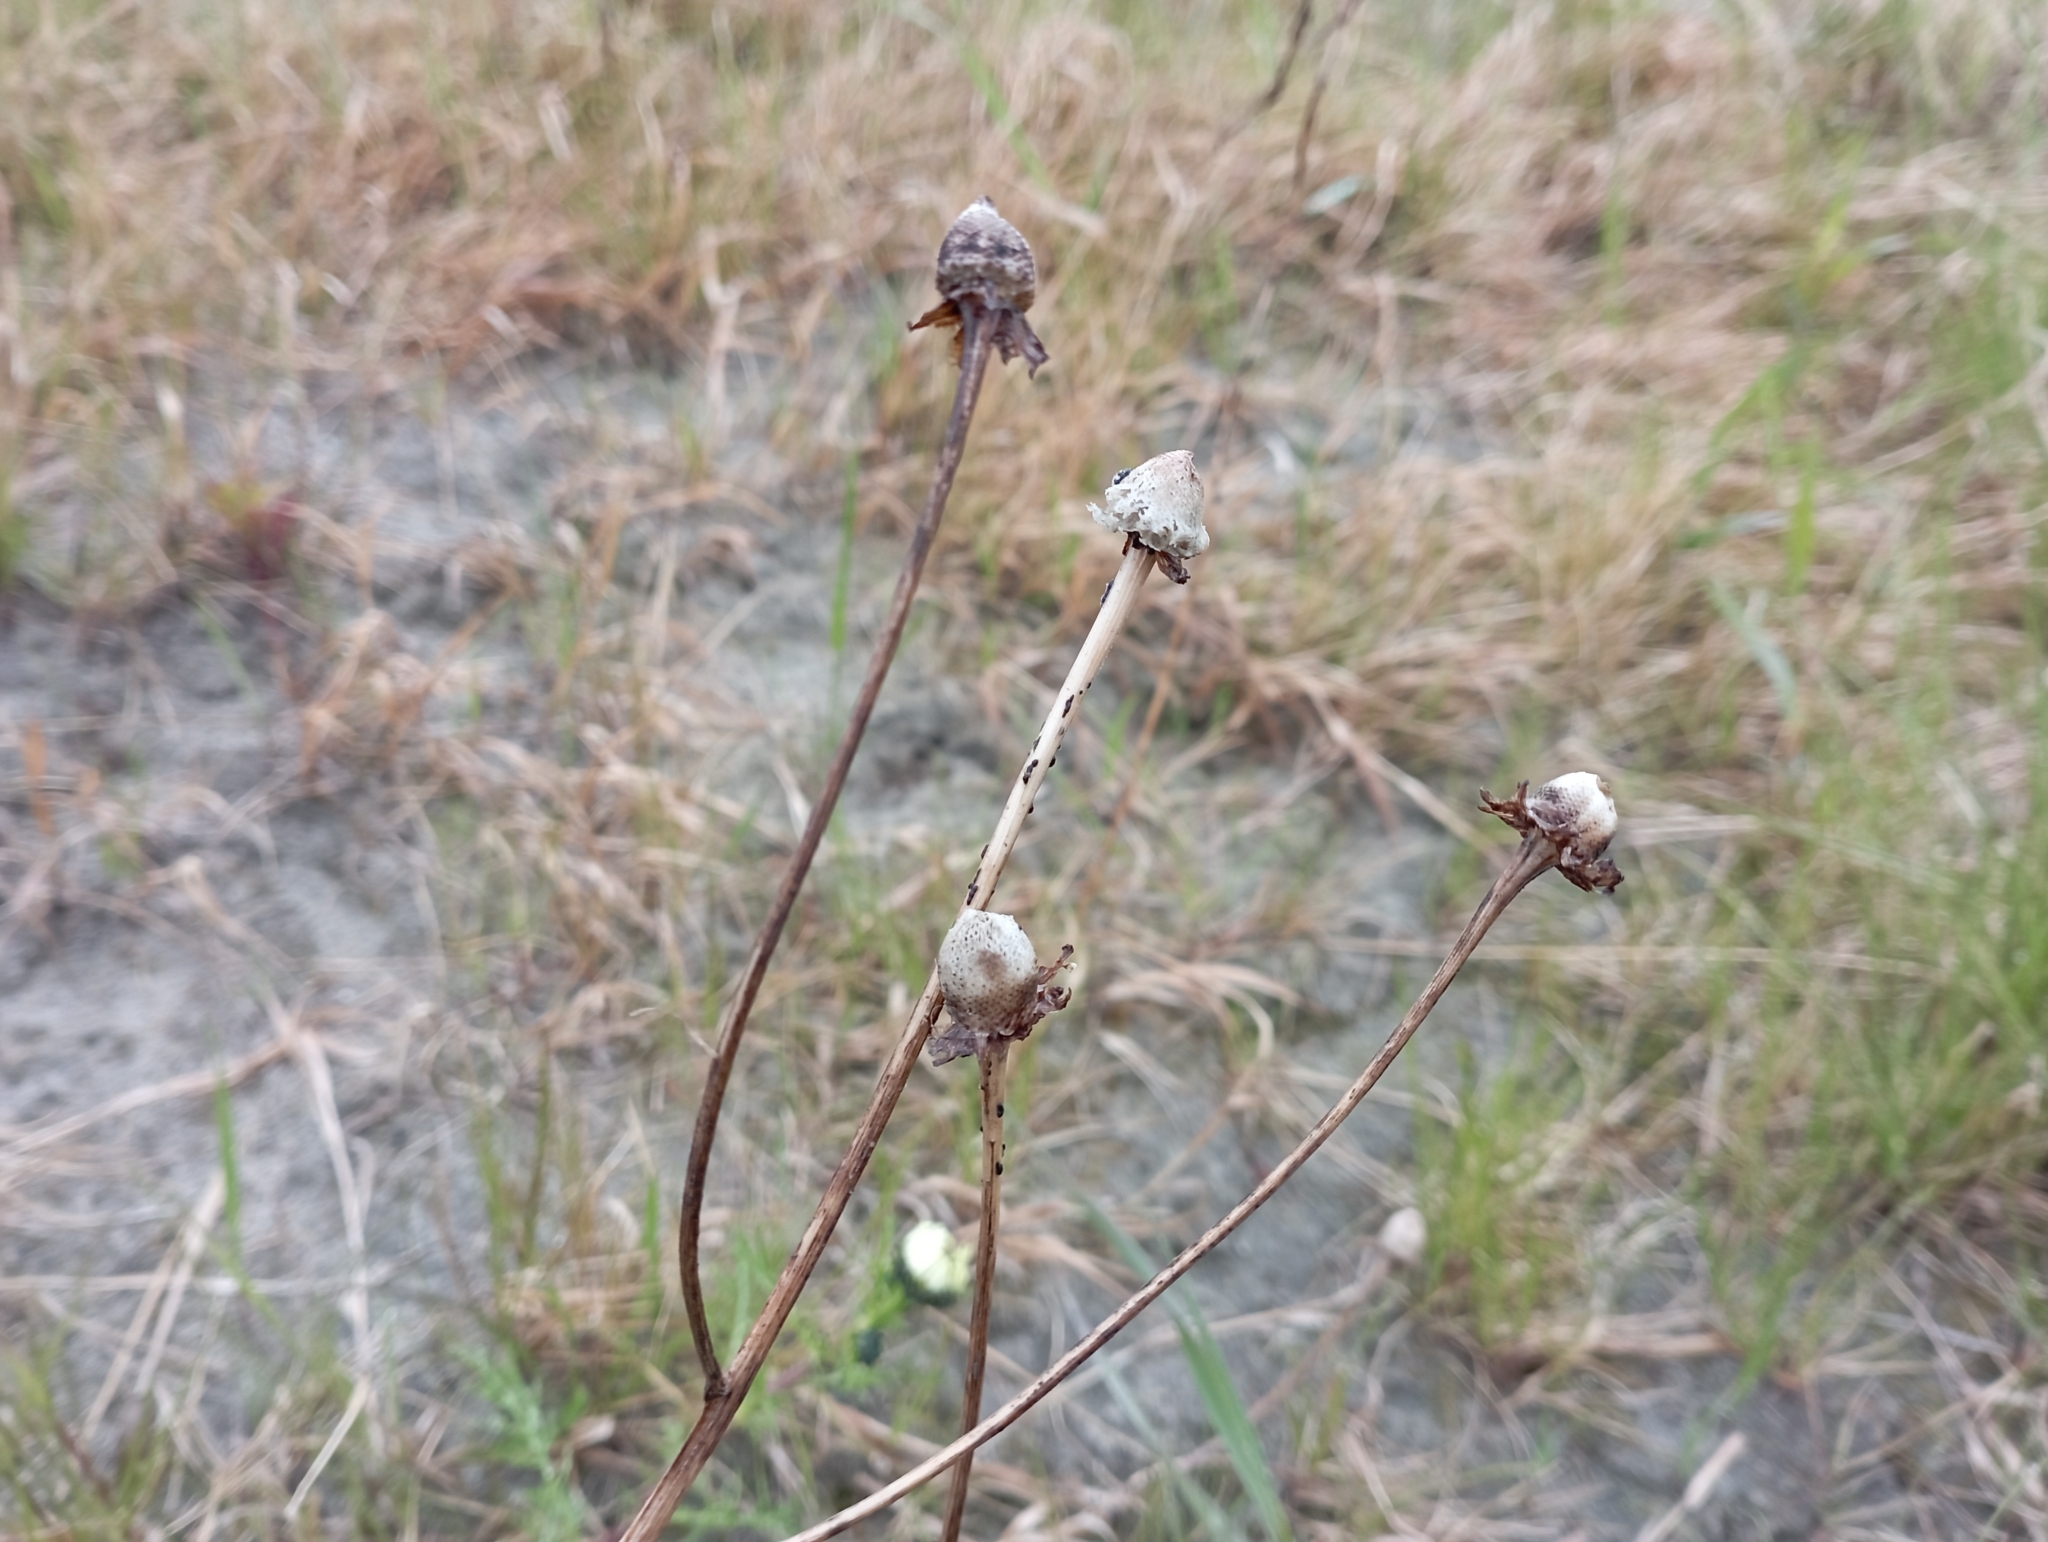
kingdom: Plantae
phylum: Tracheophyta
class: Magnoliopsida
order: Asterales
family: Asteraceae
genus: Tripleurospermum
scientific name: Tripleurospermum hookeri
